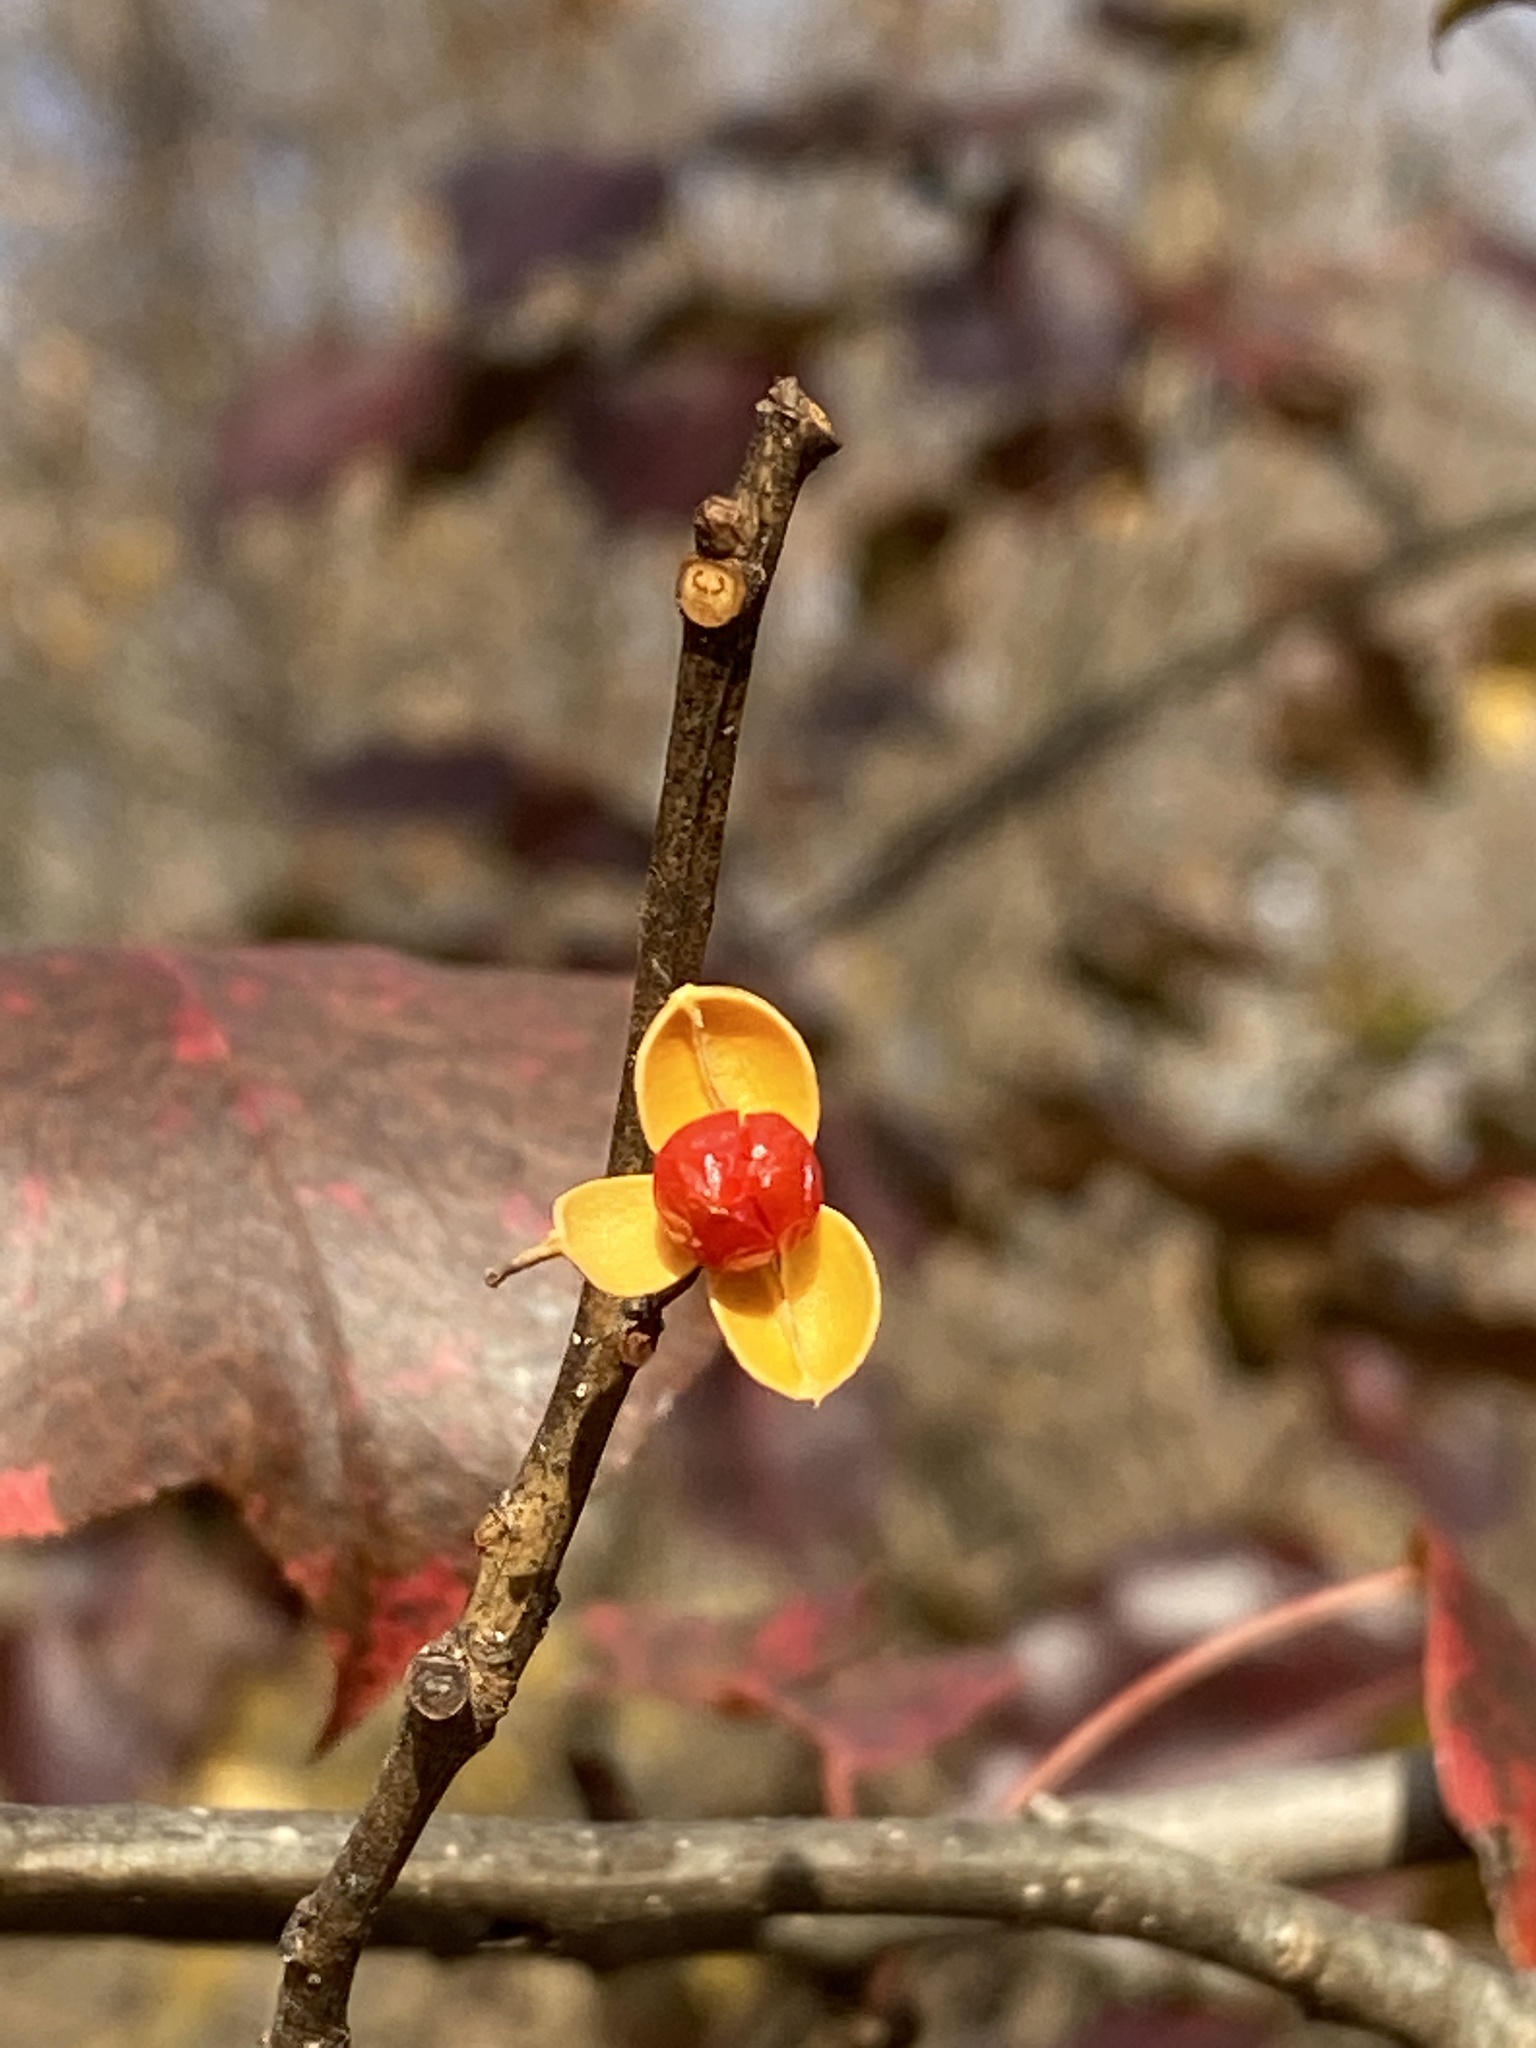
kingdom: Plantae
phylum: Tracheophyta
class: Magnoliopsida
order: Celastrales
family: Celastraceae
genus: Celastrus
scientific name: Celastrus orbiculatus
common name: Oriental bittersweet
